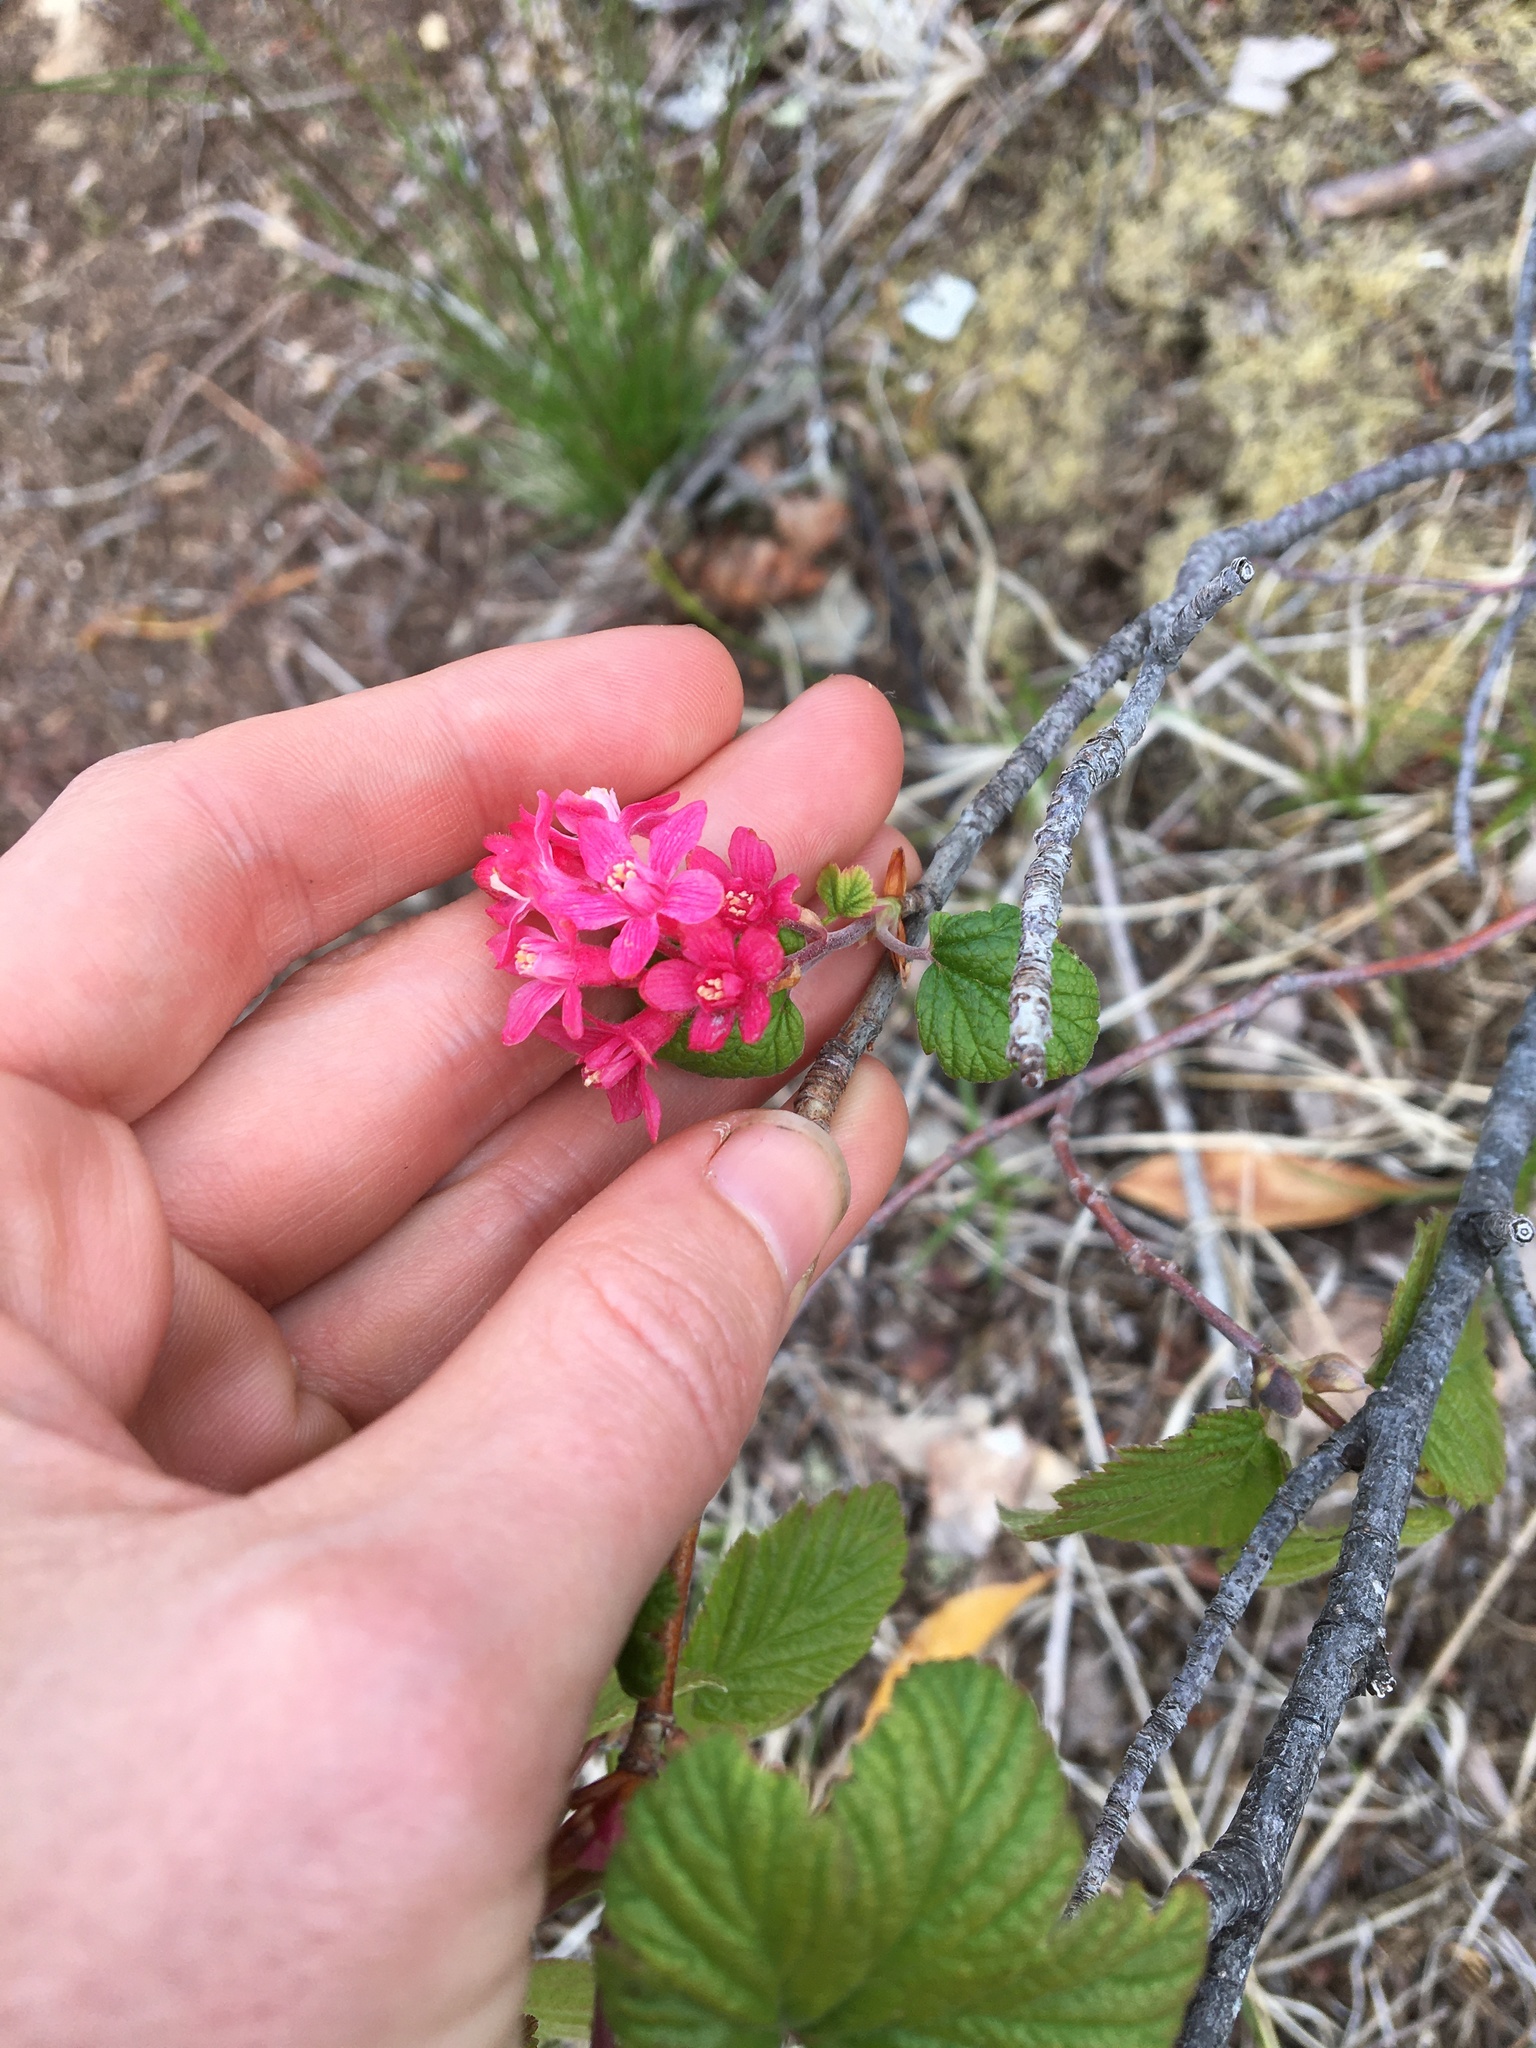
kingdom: Plantae
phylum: Tracheophyta
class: Magnoliopsida
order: Saxifragales
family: Grossulariaceae
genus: Ribes
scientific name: Ribes sanguineum
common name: Flowering currant
